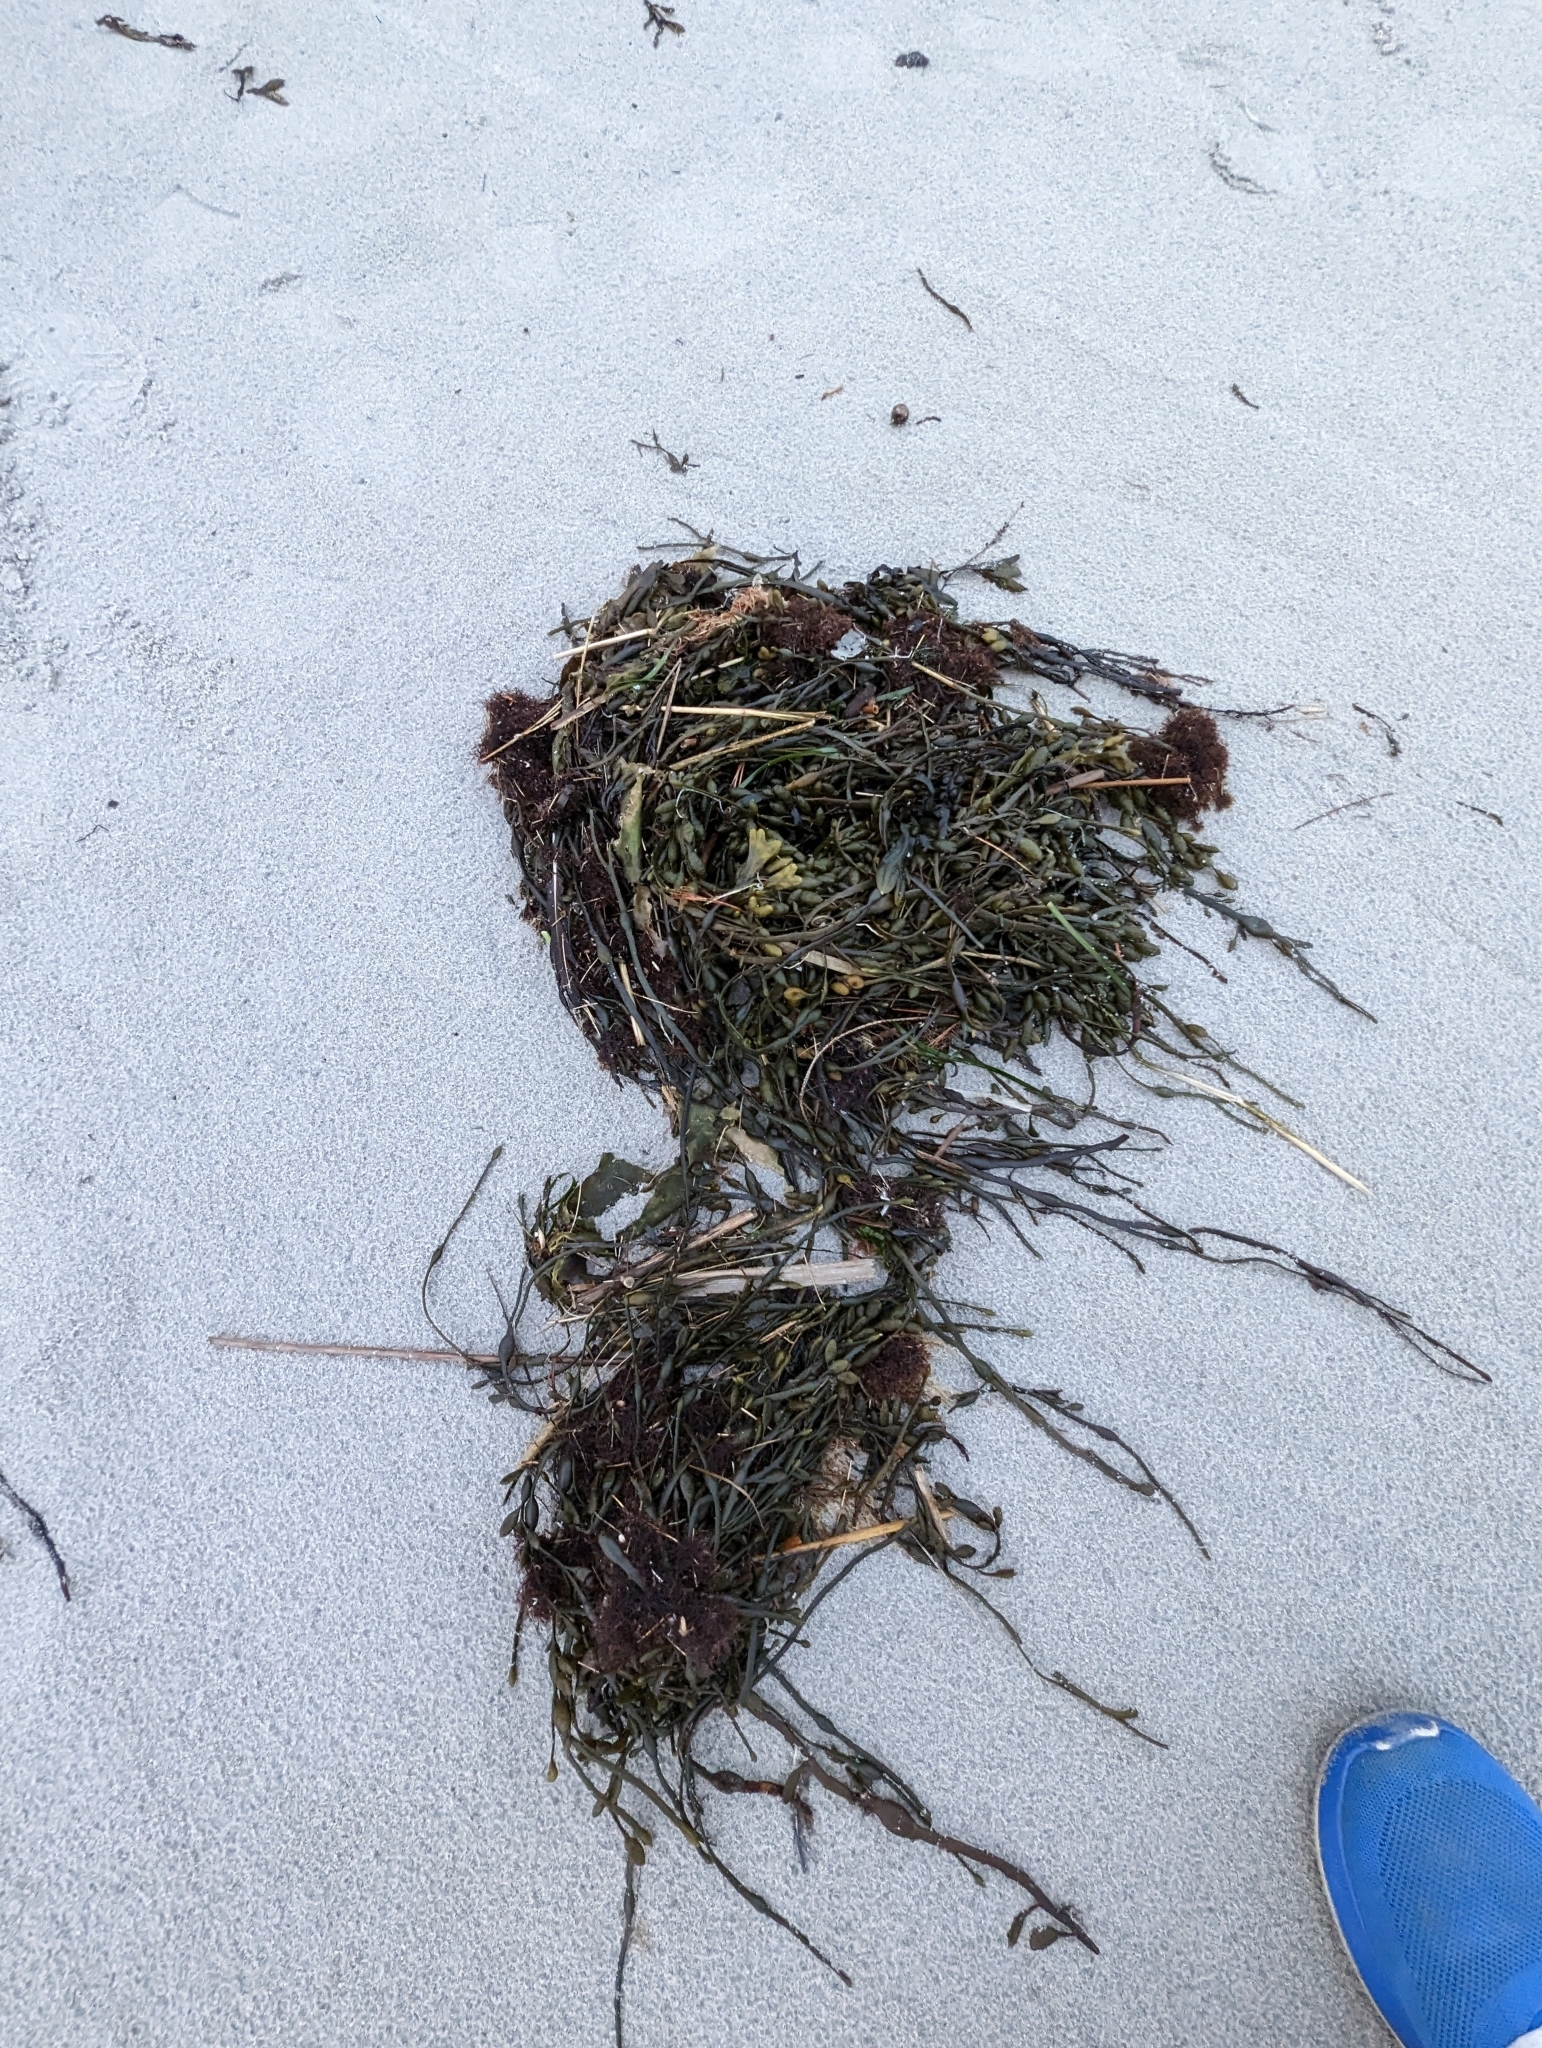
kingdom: Chromista
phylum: Ochrophyta
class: Phaeophyceae
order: Fucales
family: Fucaceae
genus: Ascophyllum
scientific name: Ascophyllum nodosum
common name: Knotted wrack
